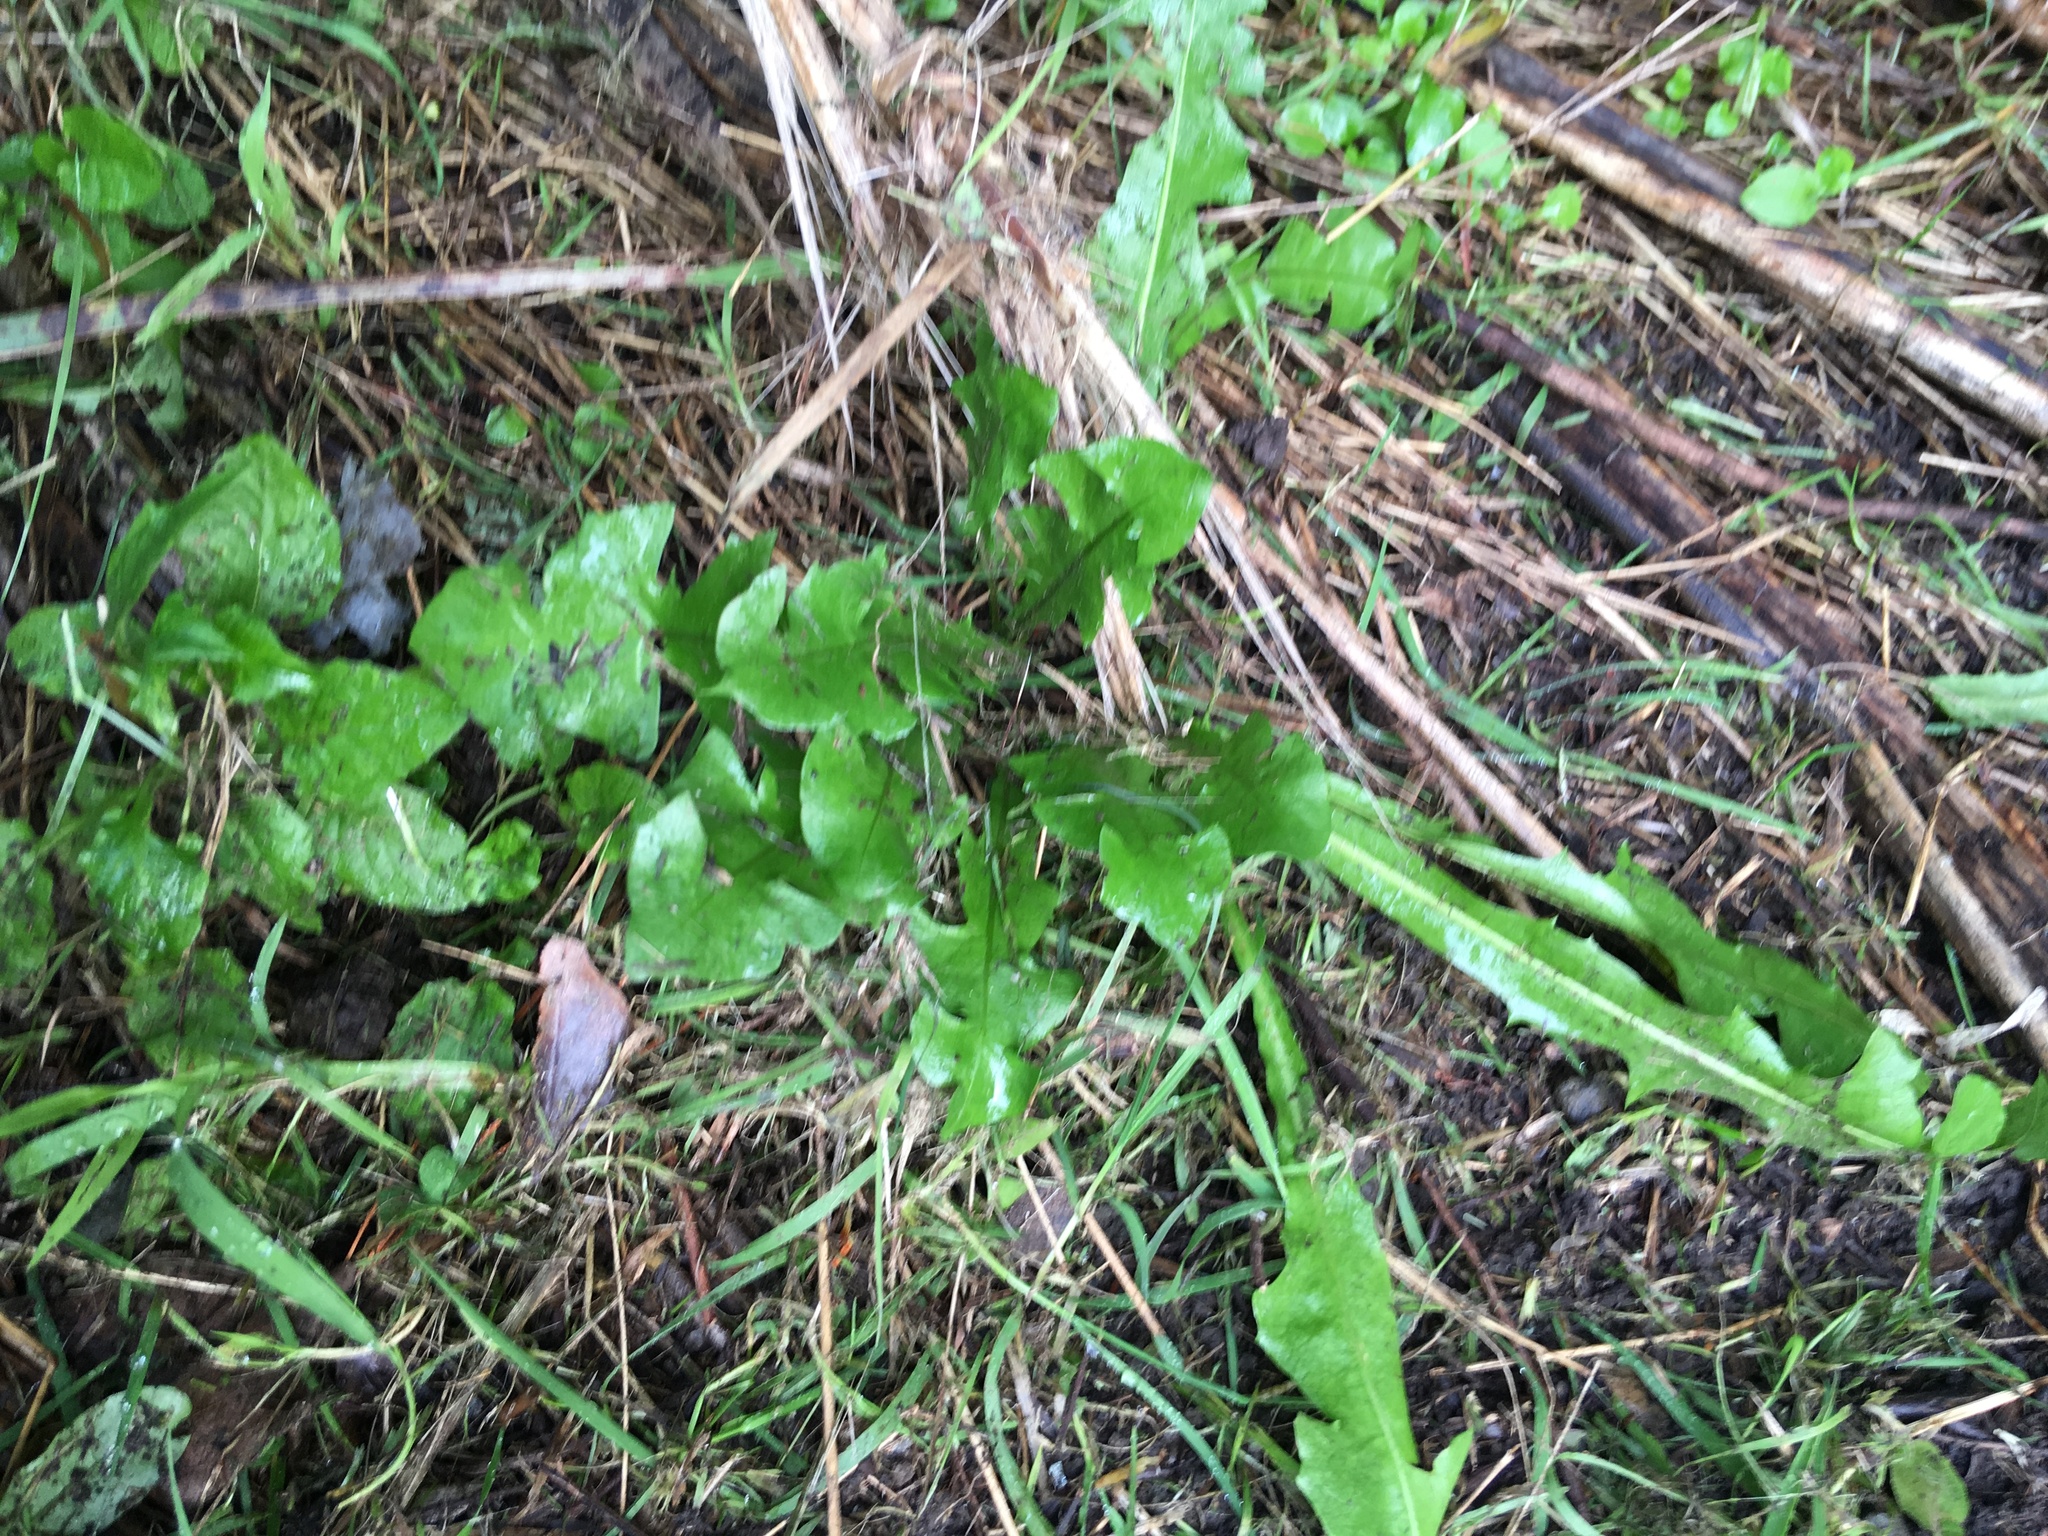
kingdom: Plantae
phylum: Tracheophyta
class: Magnoliopsida
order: Asterales
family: Asteraceae
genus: Taraxacum
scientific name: Taraxacum officinale
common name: Common dandelion
